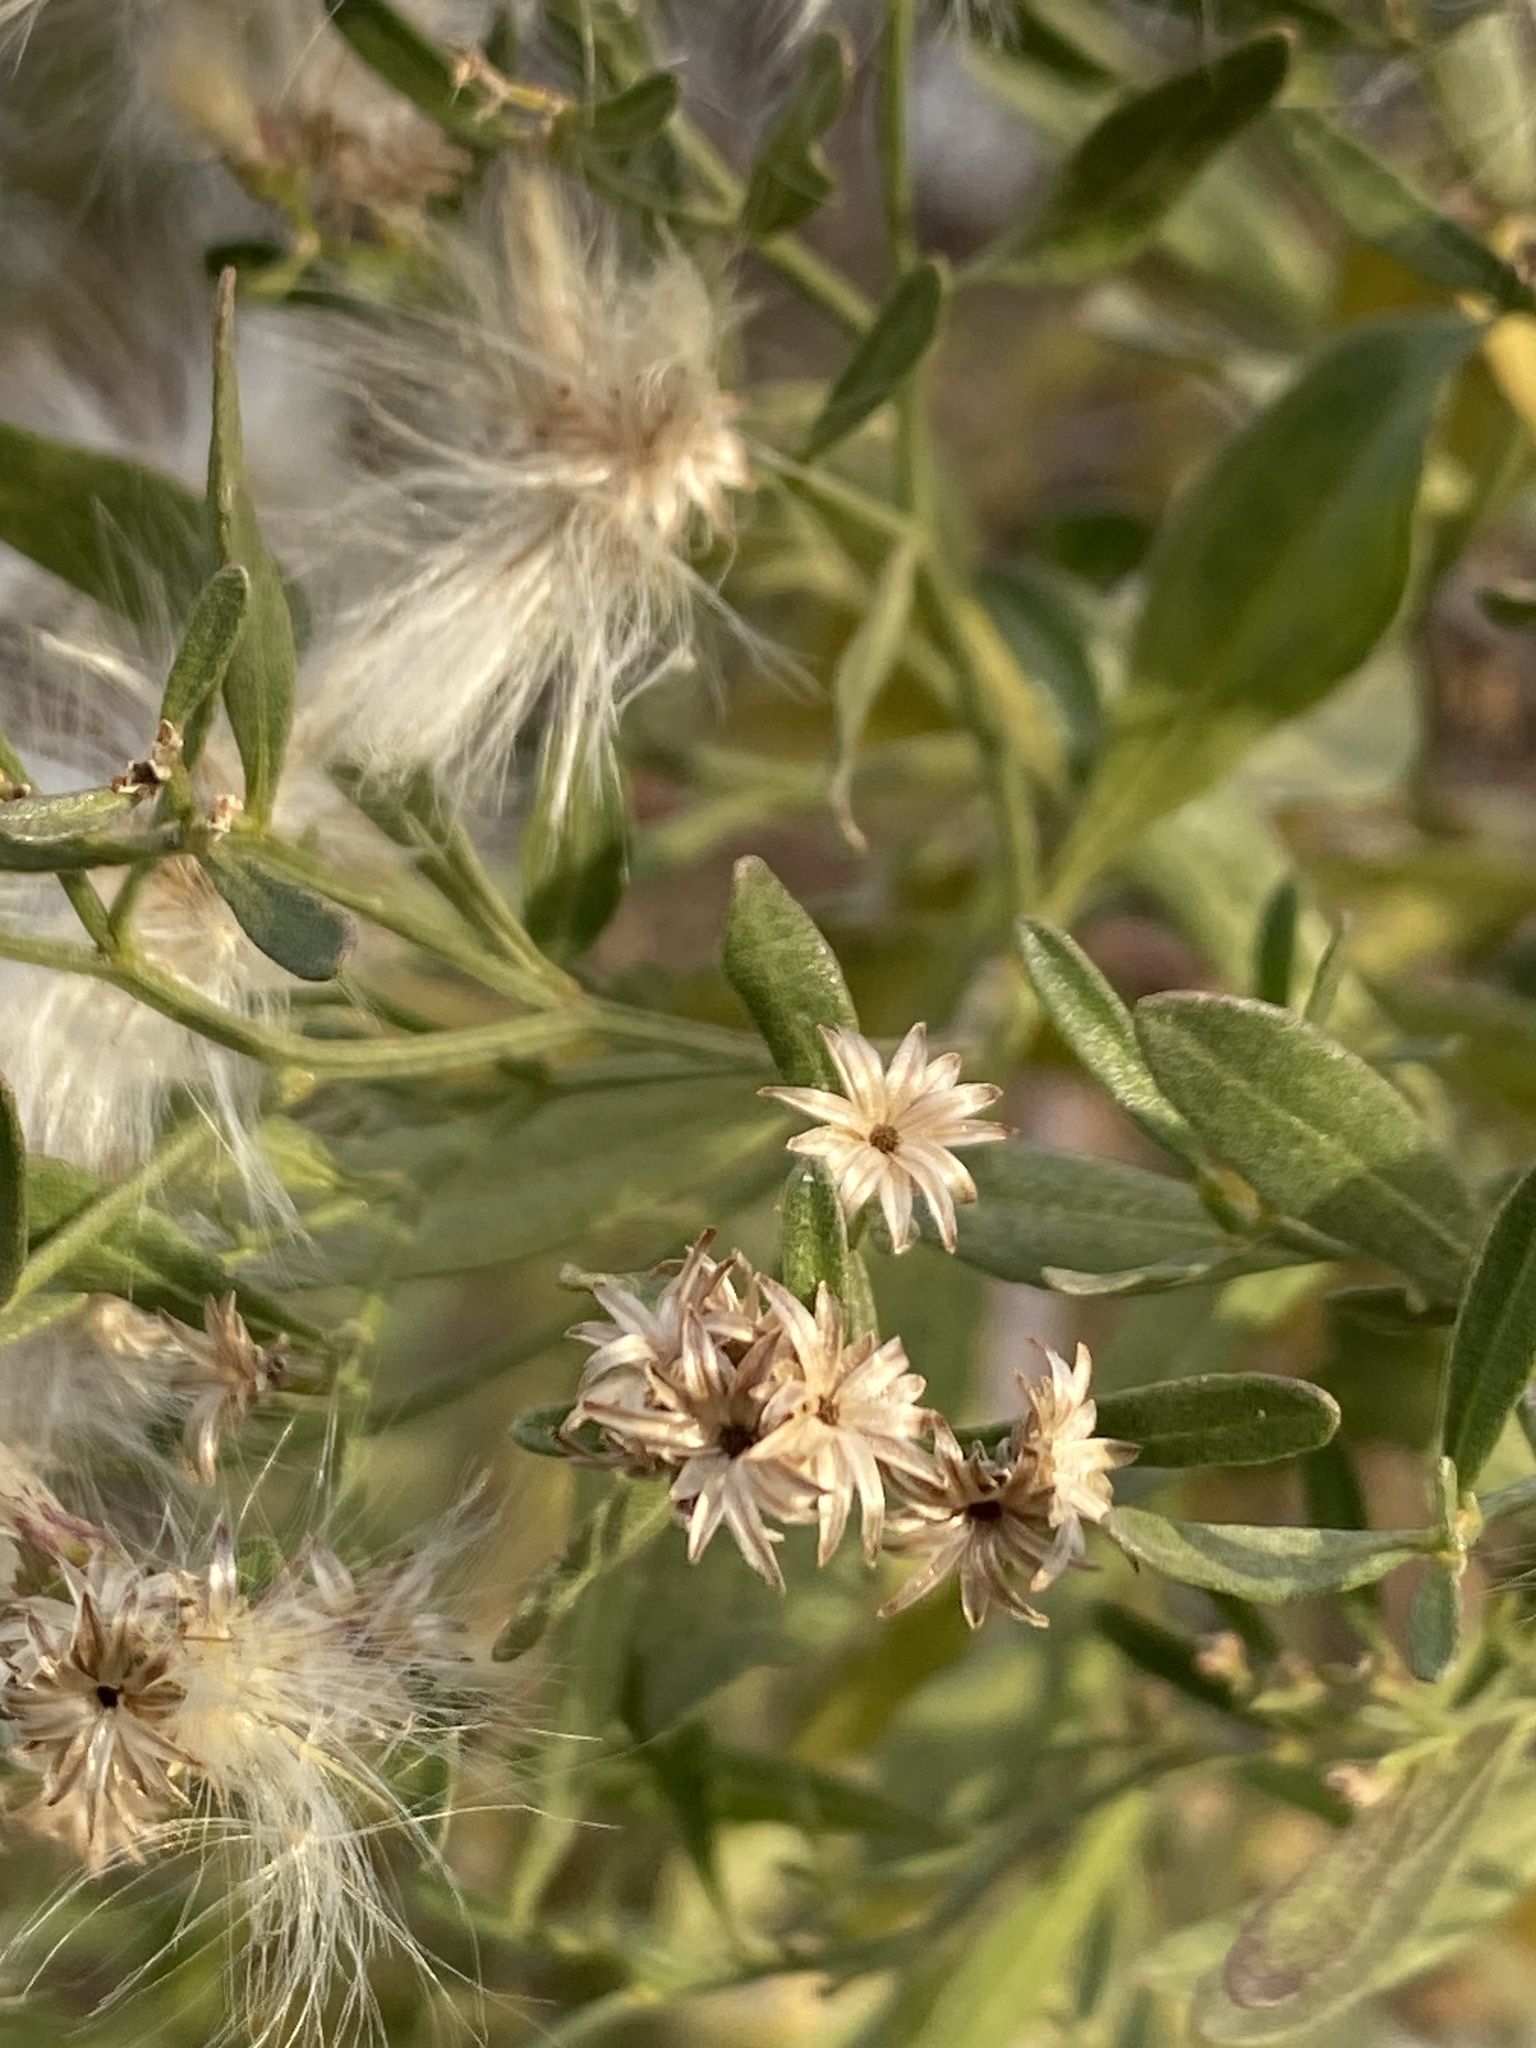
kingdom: Plantae
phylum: Tracheophyta
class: Magnoliopsida
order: Asterales
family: Asteraceae
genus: Baccharis
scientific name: Baccharis halimifolia
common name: Eastern baccharis
